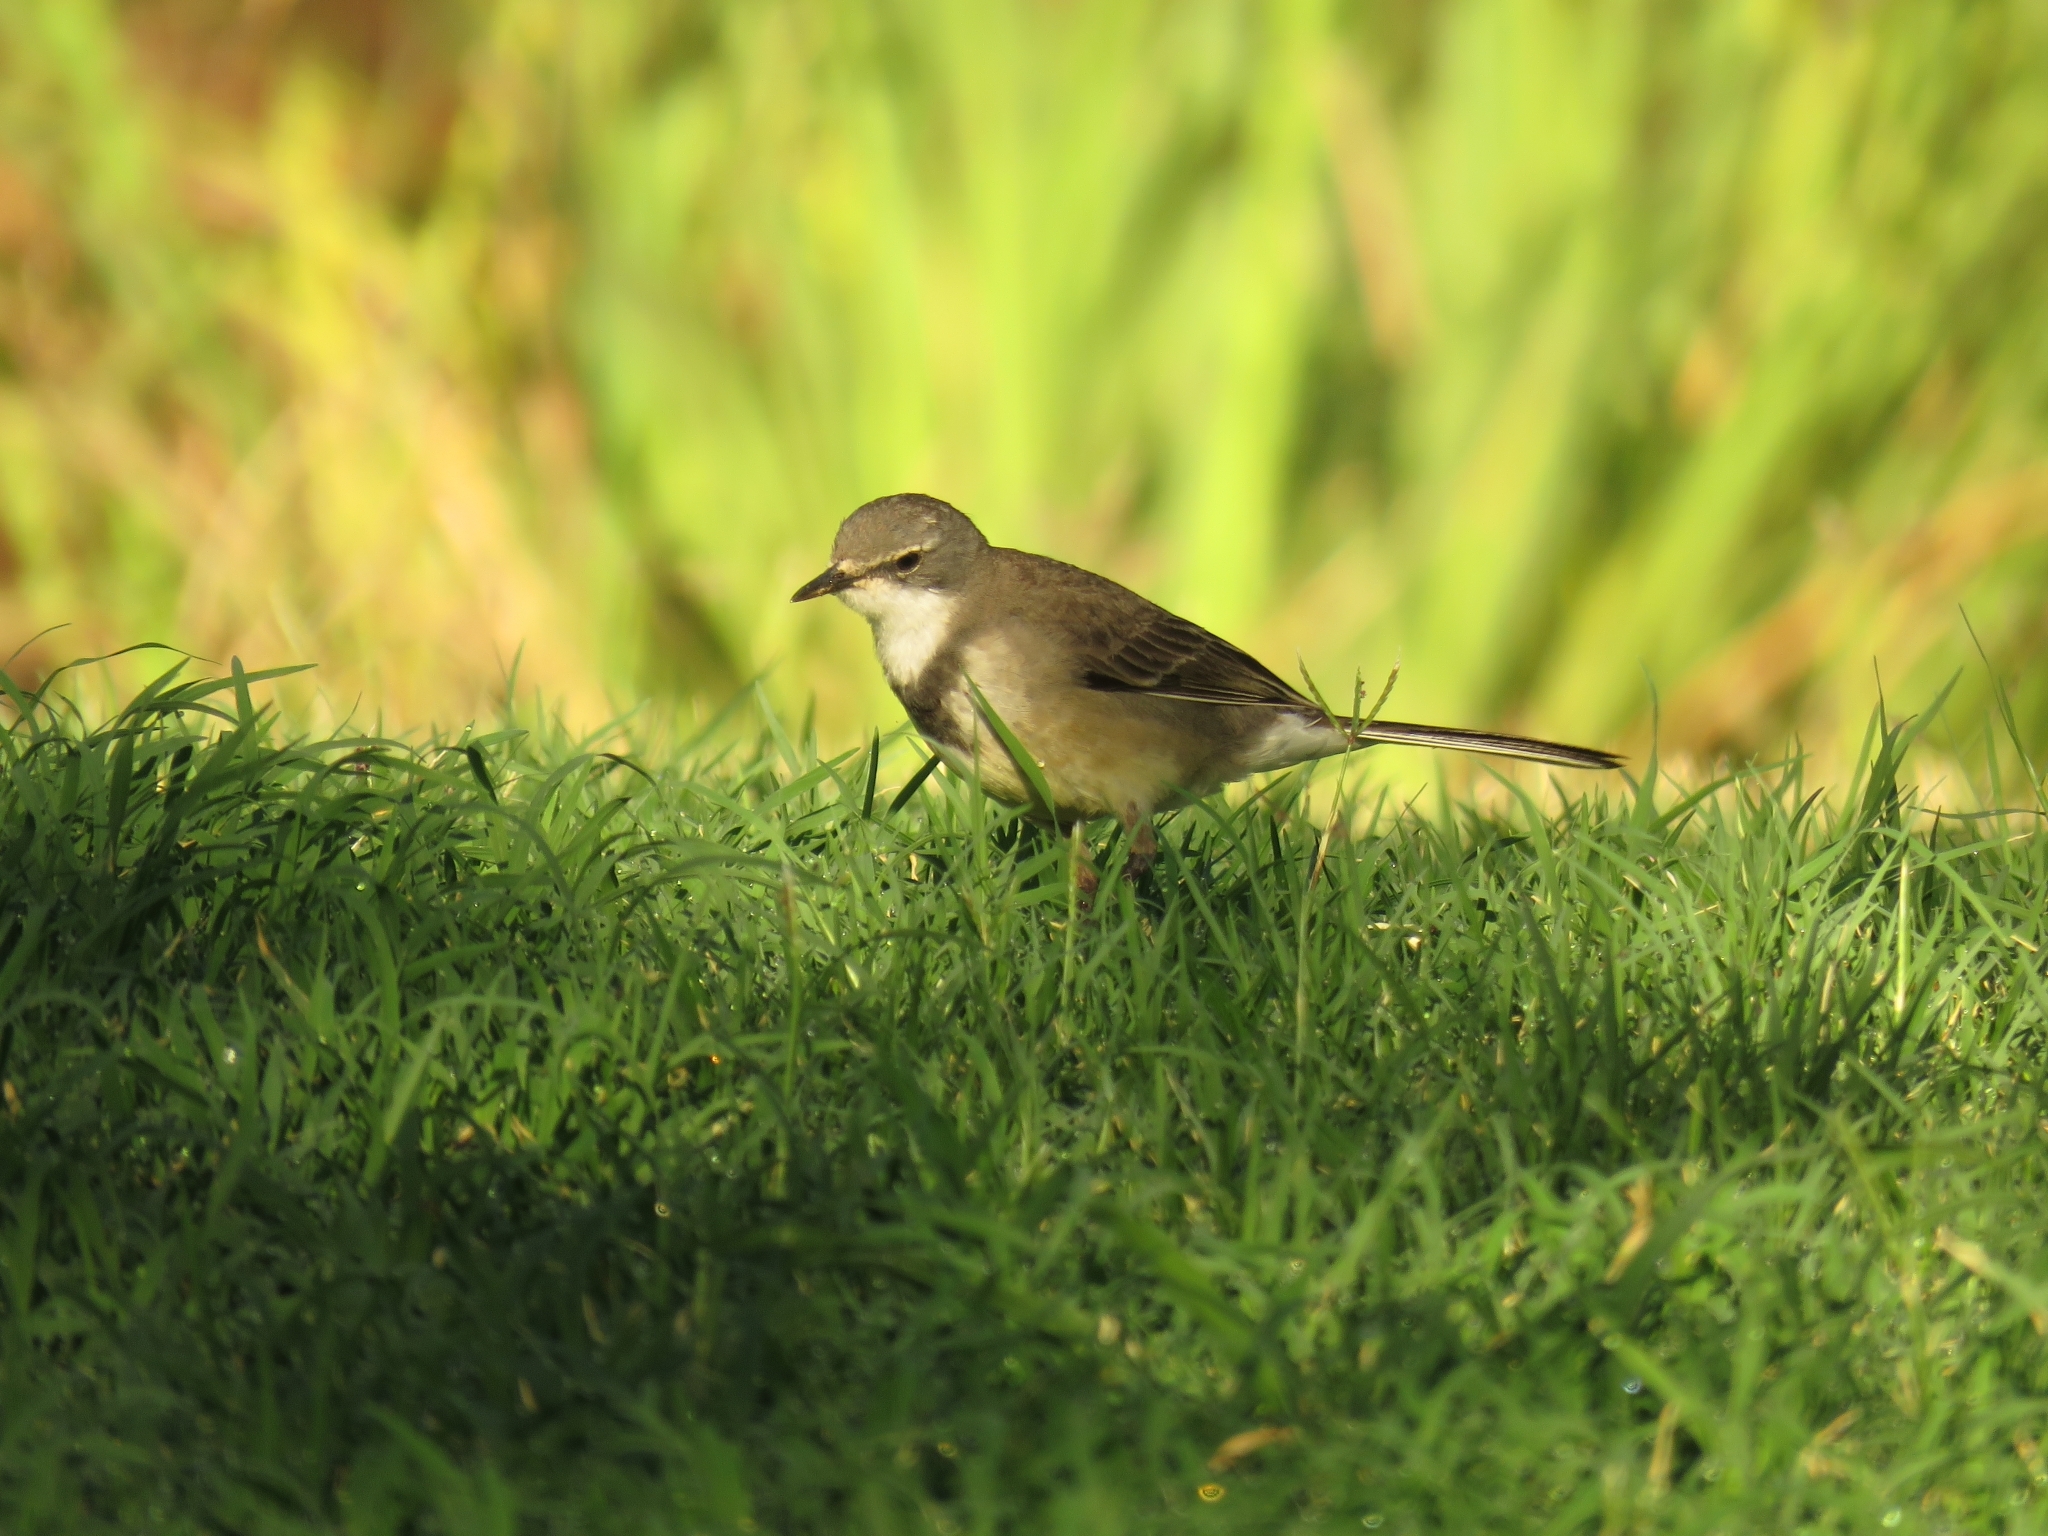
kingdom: Animalia
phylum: Chordata
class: Aves
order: Passeriformes
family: Motacillidae
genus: Motacilla
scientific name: Motacilla capensis
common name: Cape wagtail
